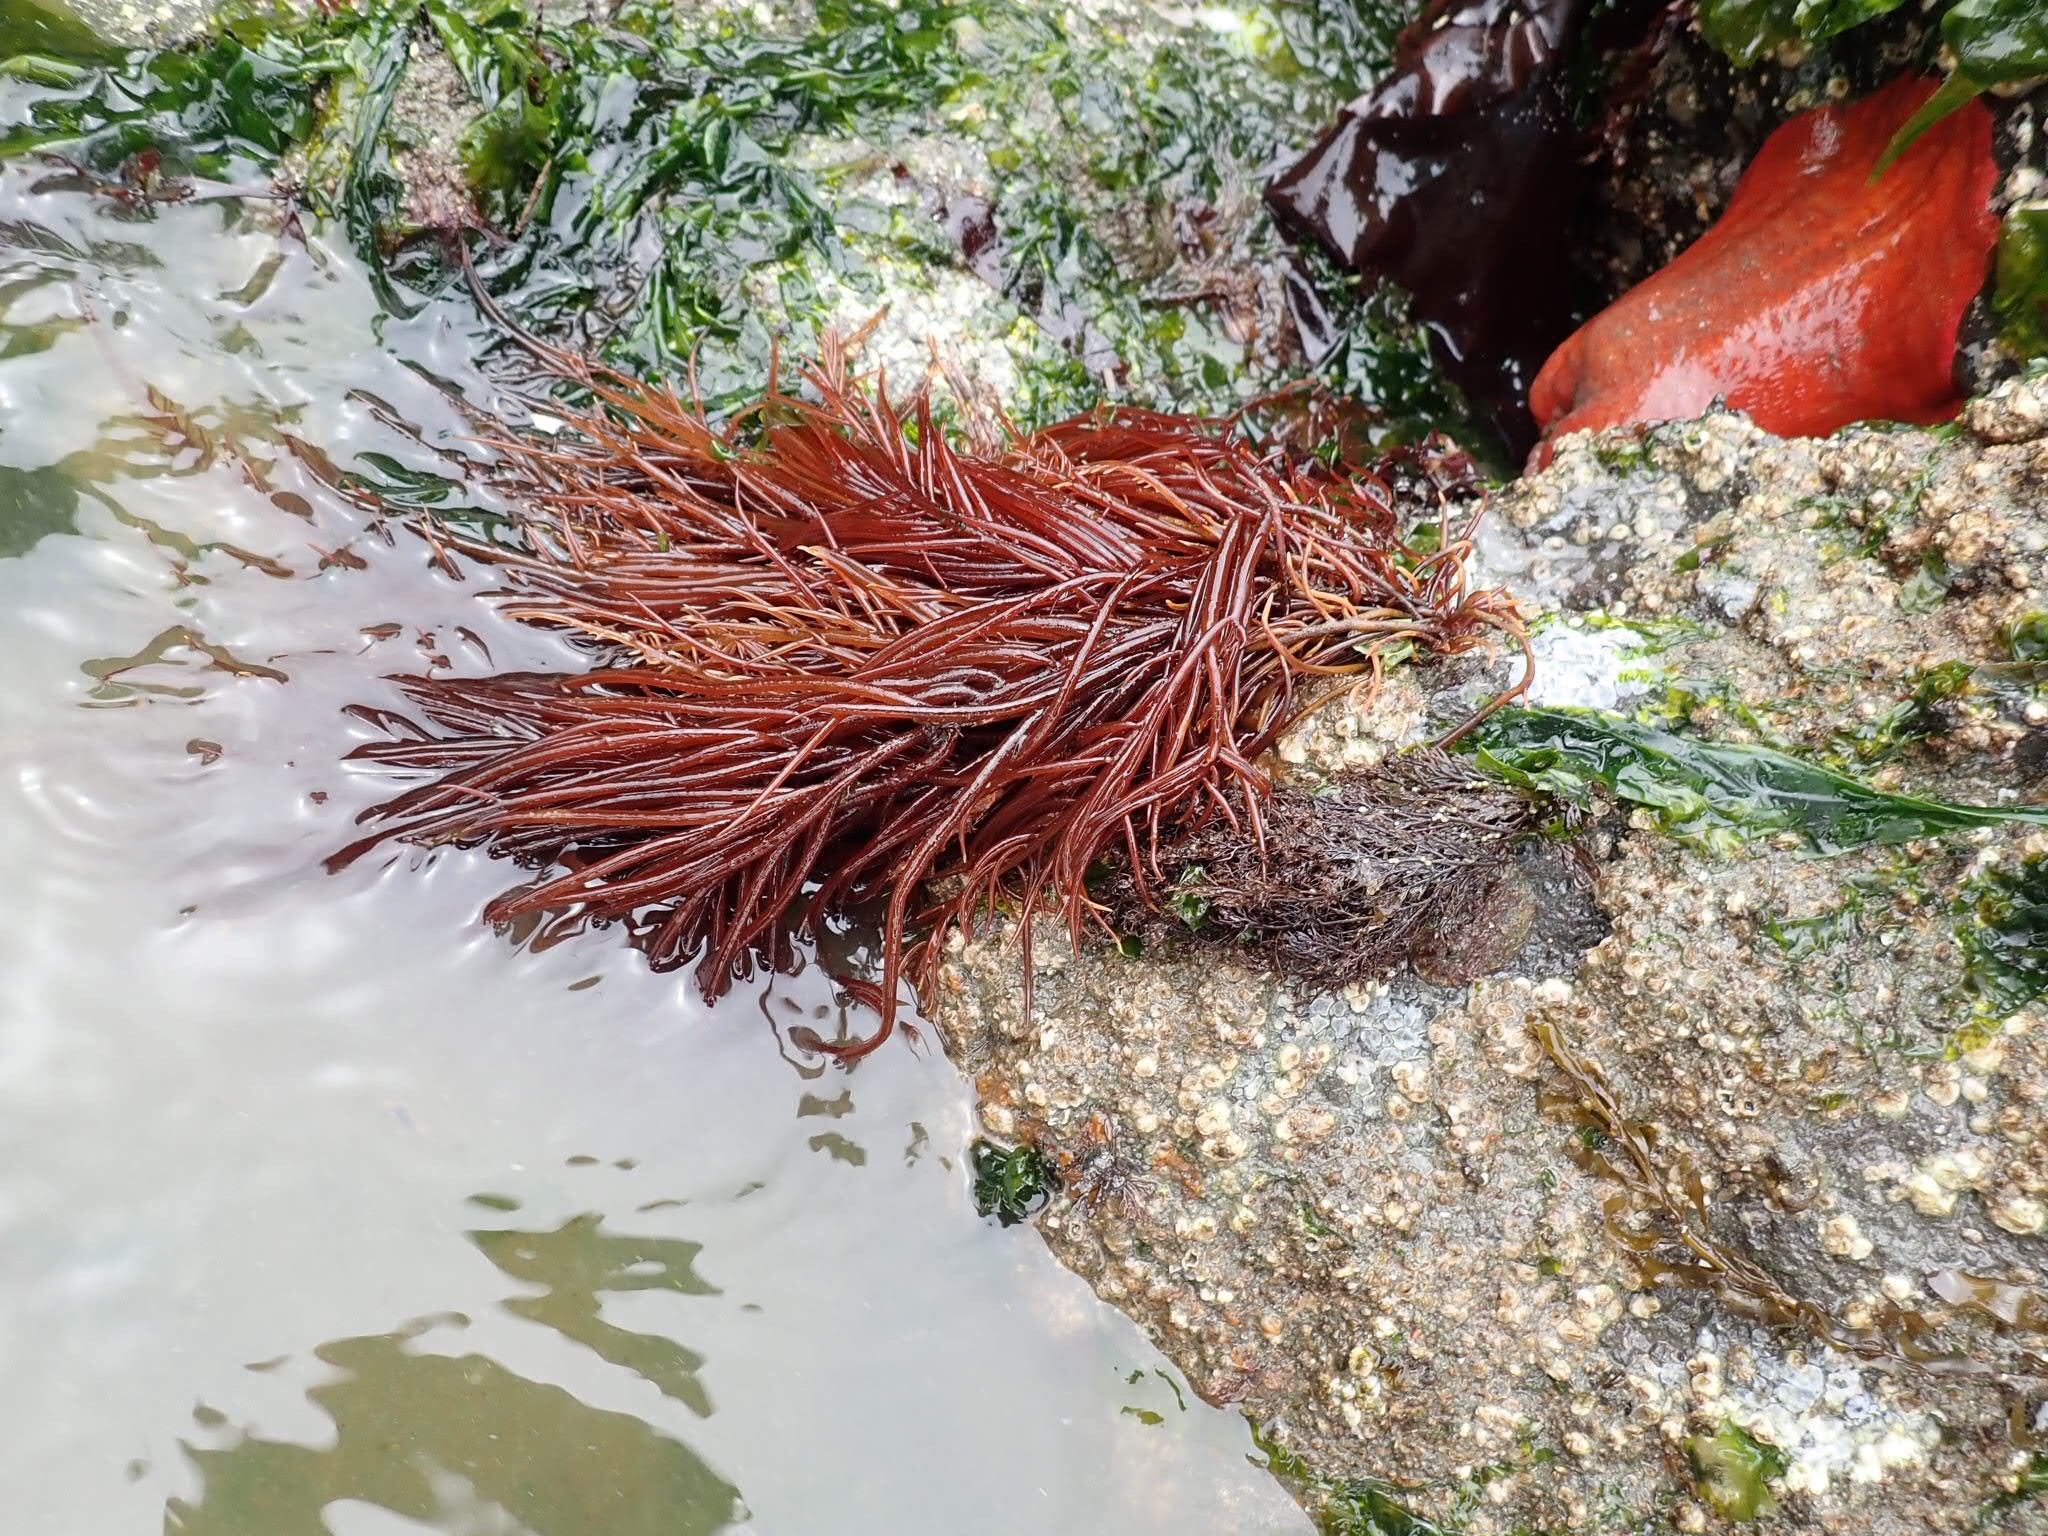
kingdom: Plantae
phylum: Rhodophyta
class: Florideophyceae
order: Gigartinales
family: Solieriaceae
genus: Sarcodiotheca
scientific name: Sarcodiotheca gaudichaudii
